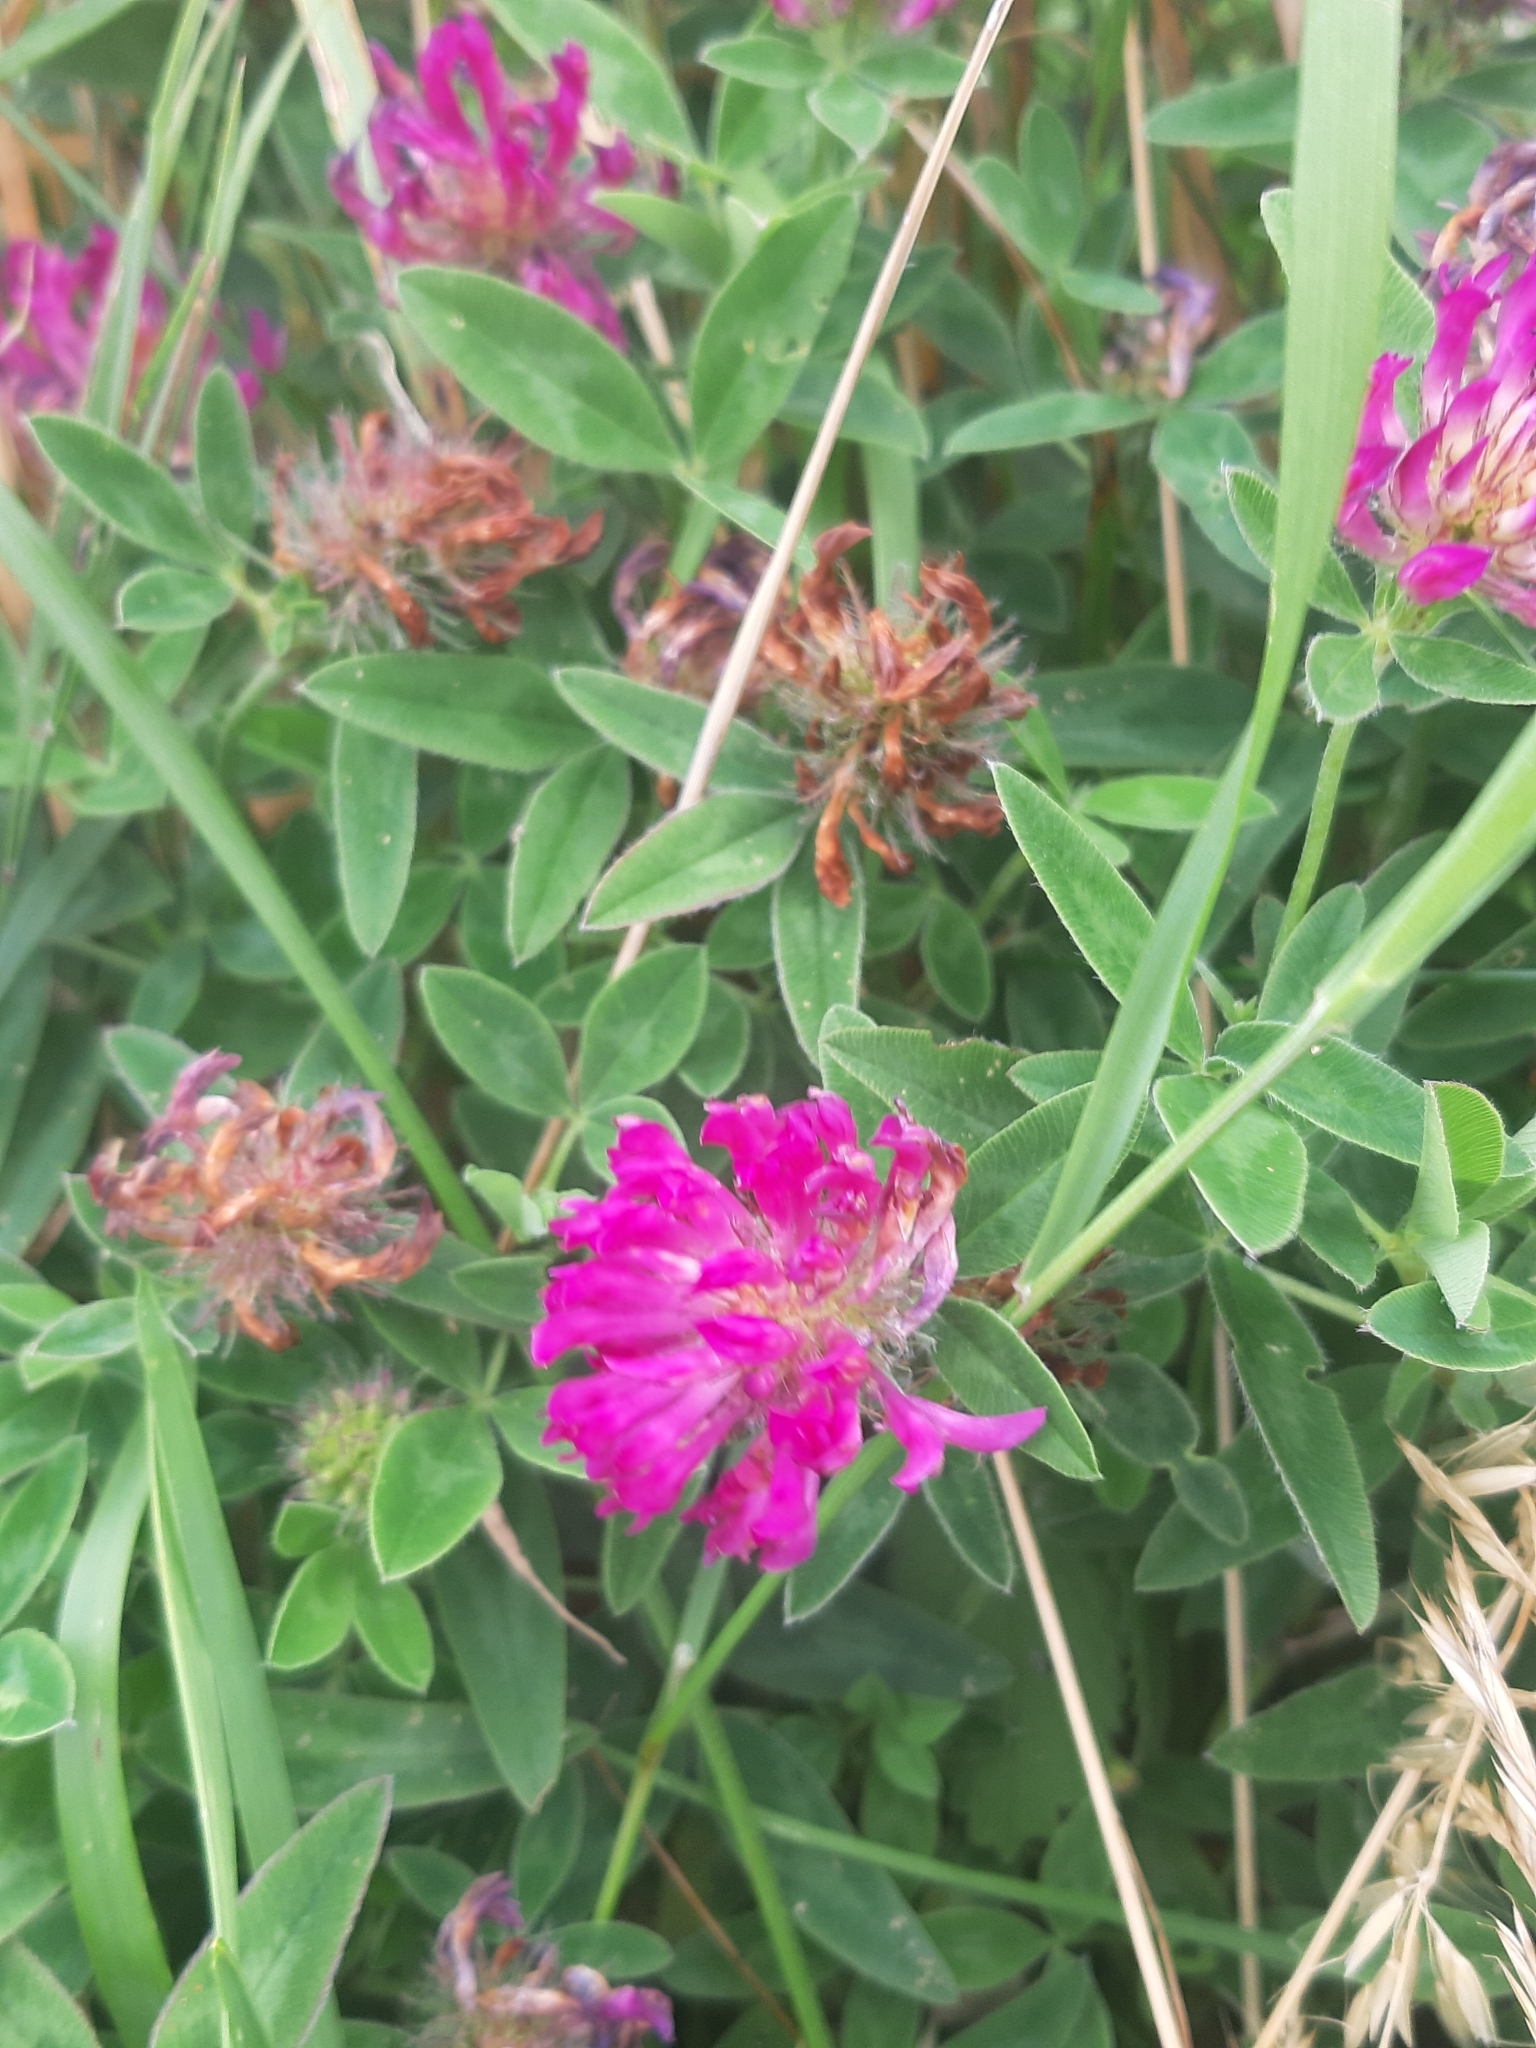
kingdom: Plantae
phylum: Tracheophyta
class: Magnoliopsida
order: Fabales
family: Fabaceae
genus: Trifolium
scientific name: Trifolium medium
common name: Zigzag clover
